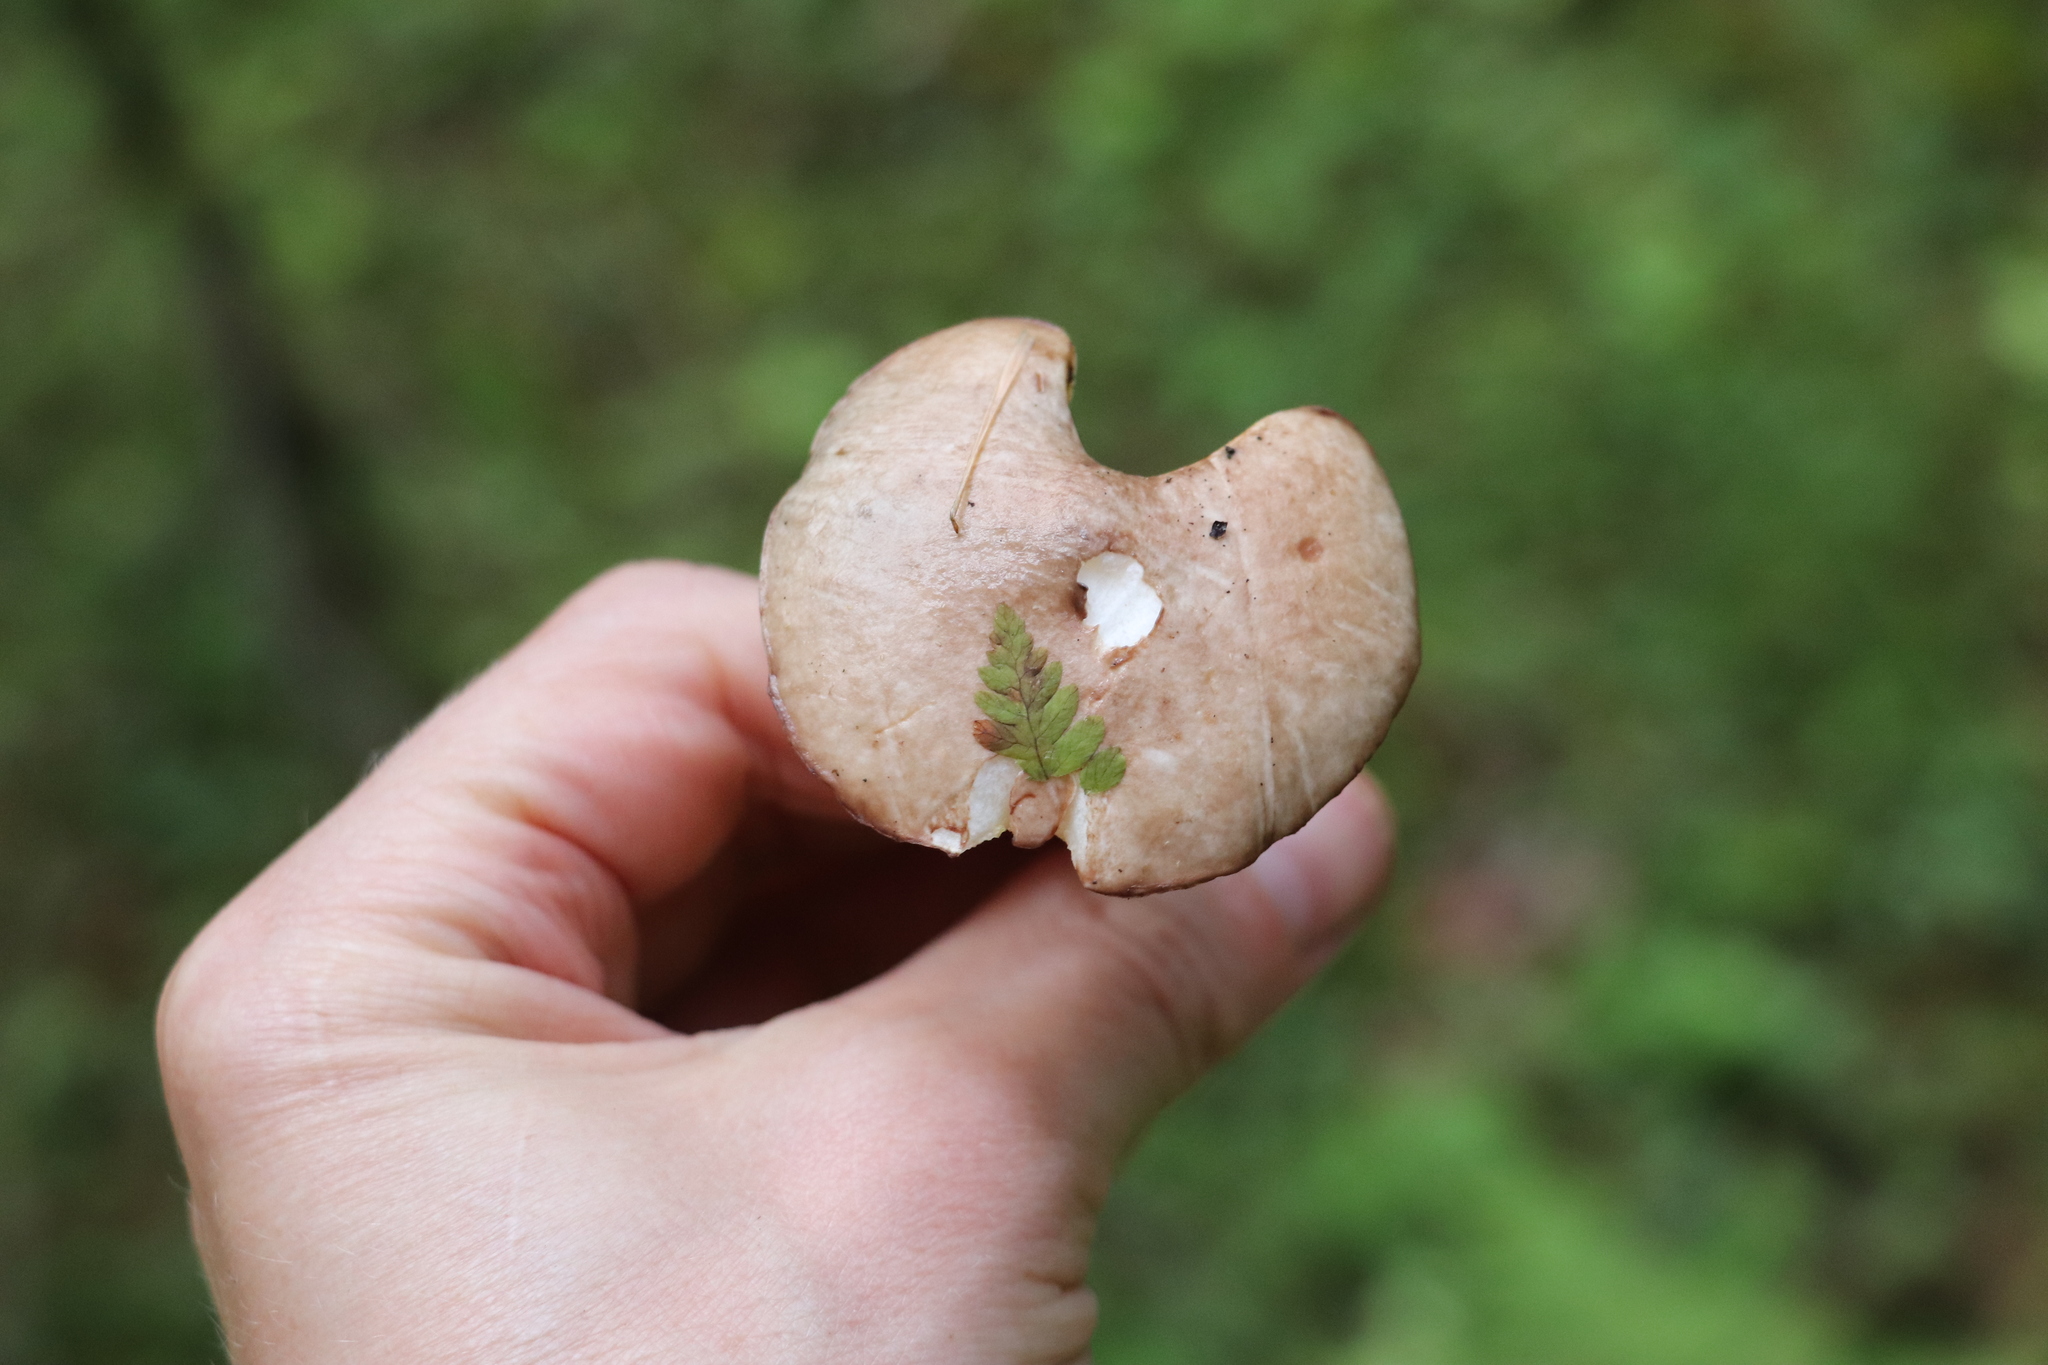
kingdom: Fungi
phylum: Basidiomycota
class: Agaricomycetes
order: Boletales
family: Suillaceae
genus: Suillus
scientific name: Suillus placidus
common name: Slippery white bolete
